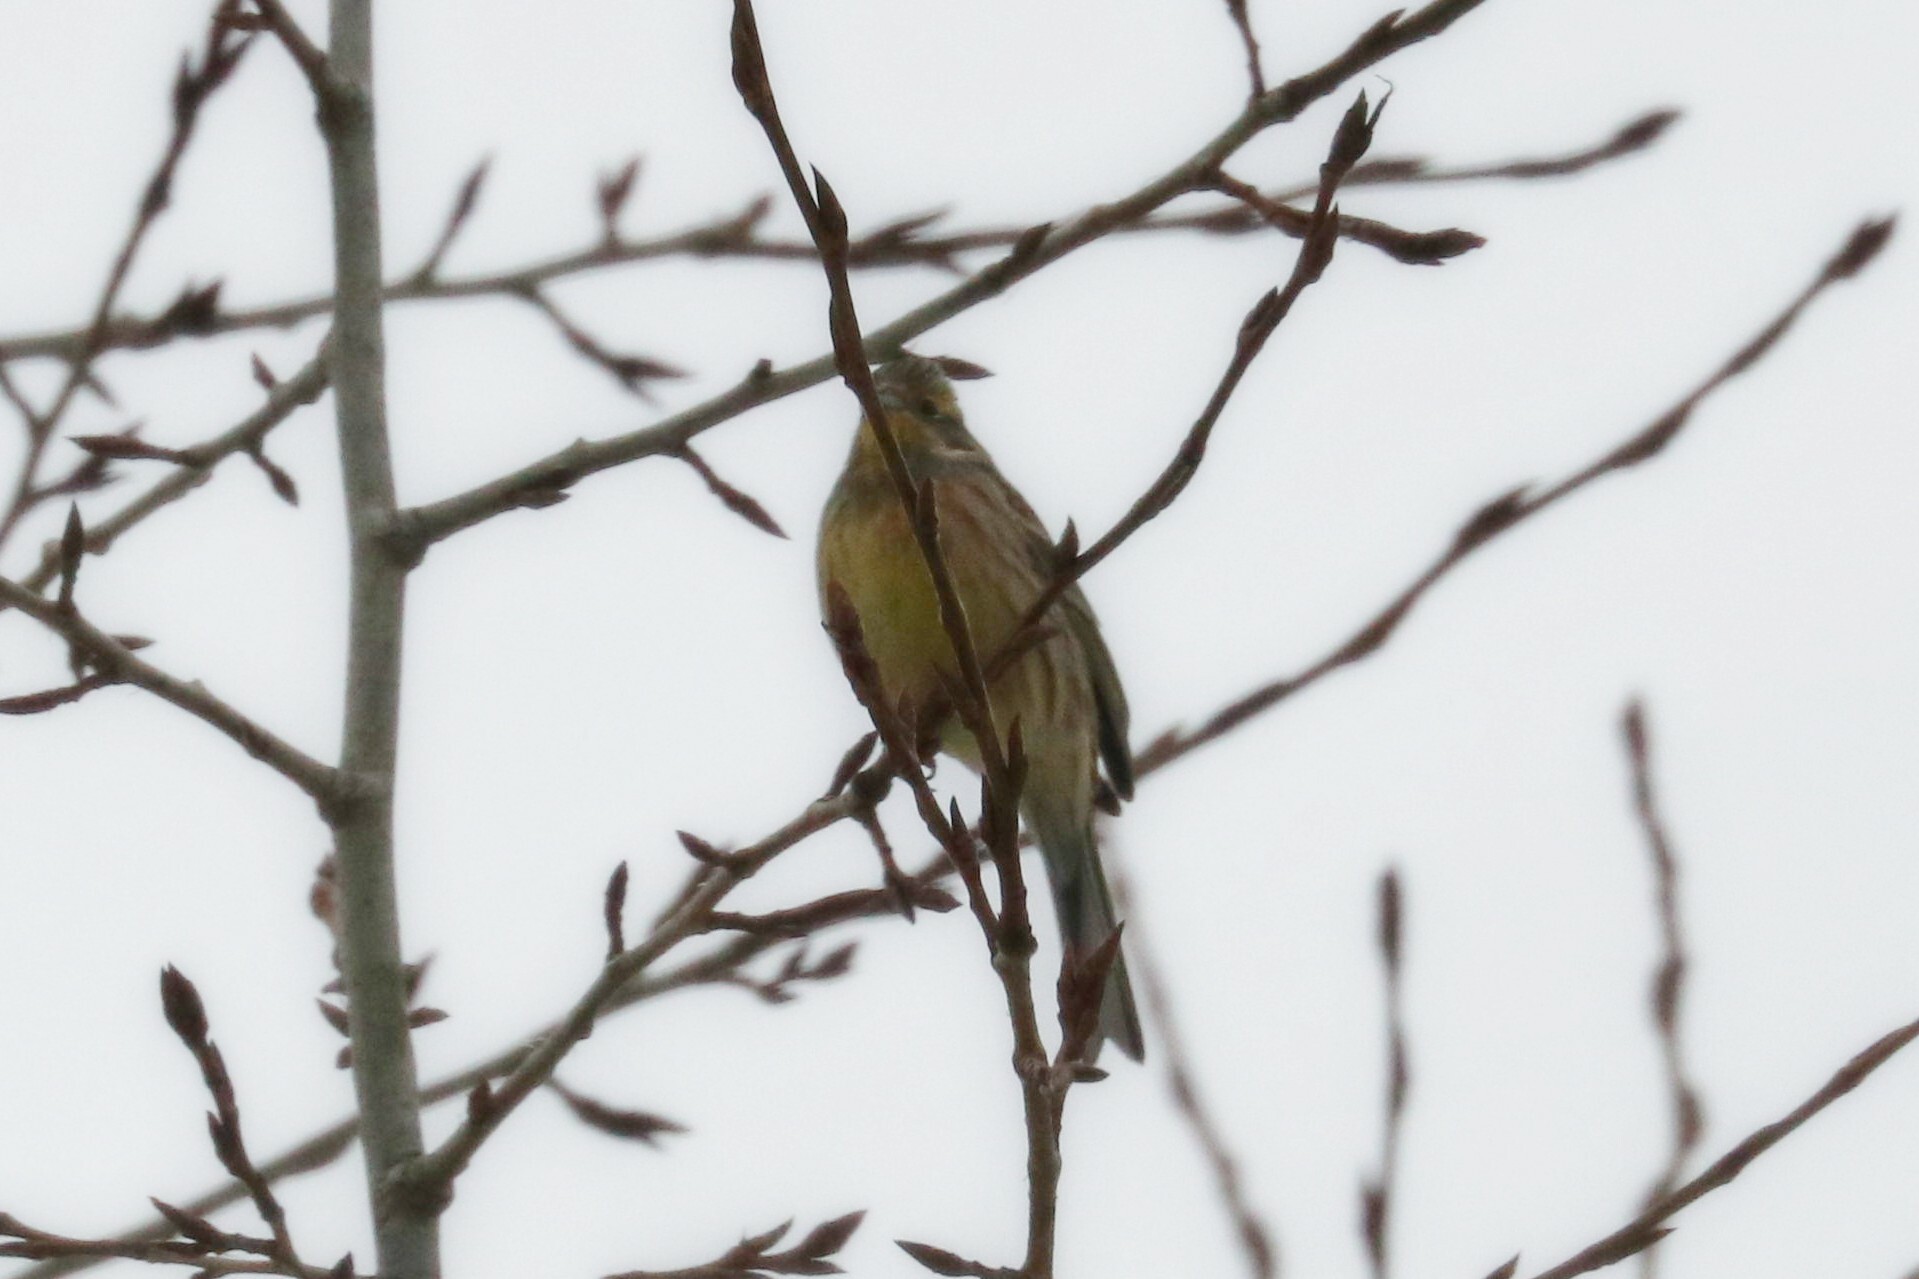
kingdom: Animalia
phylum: Chordata
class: Aves
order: Passeriformes
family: Emberizidae
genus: Emberiza
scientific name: Emberiza citrinella
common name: Yellowhammer
